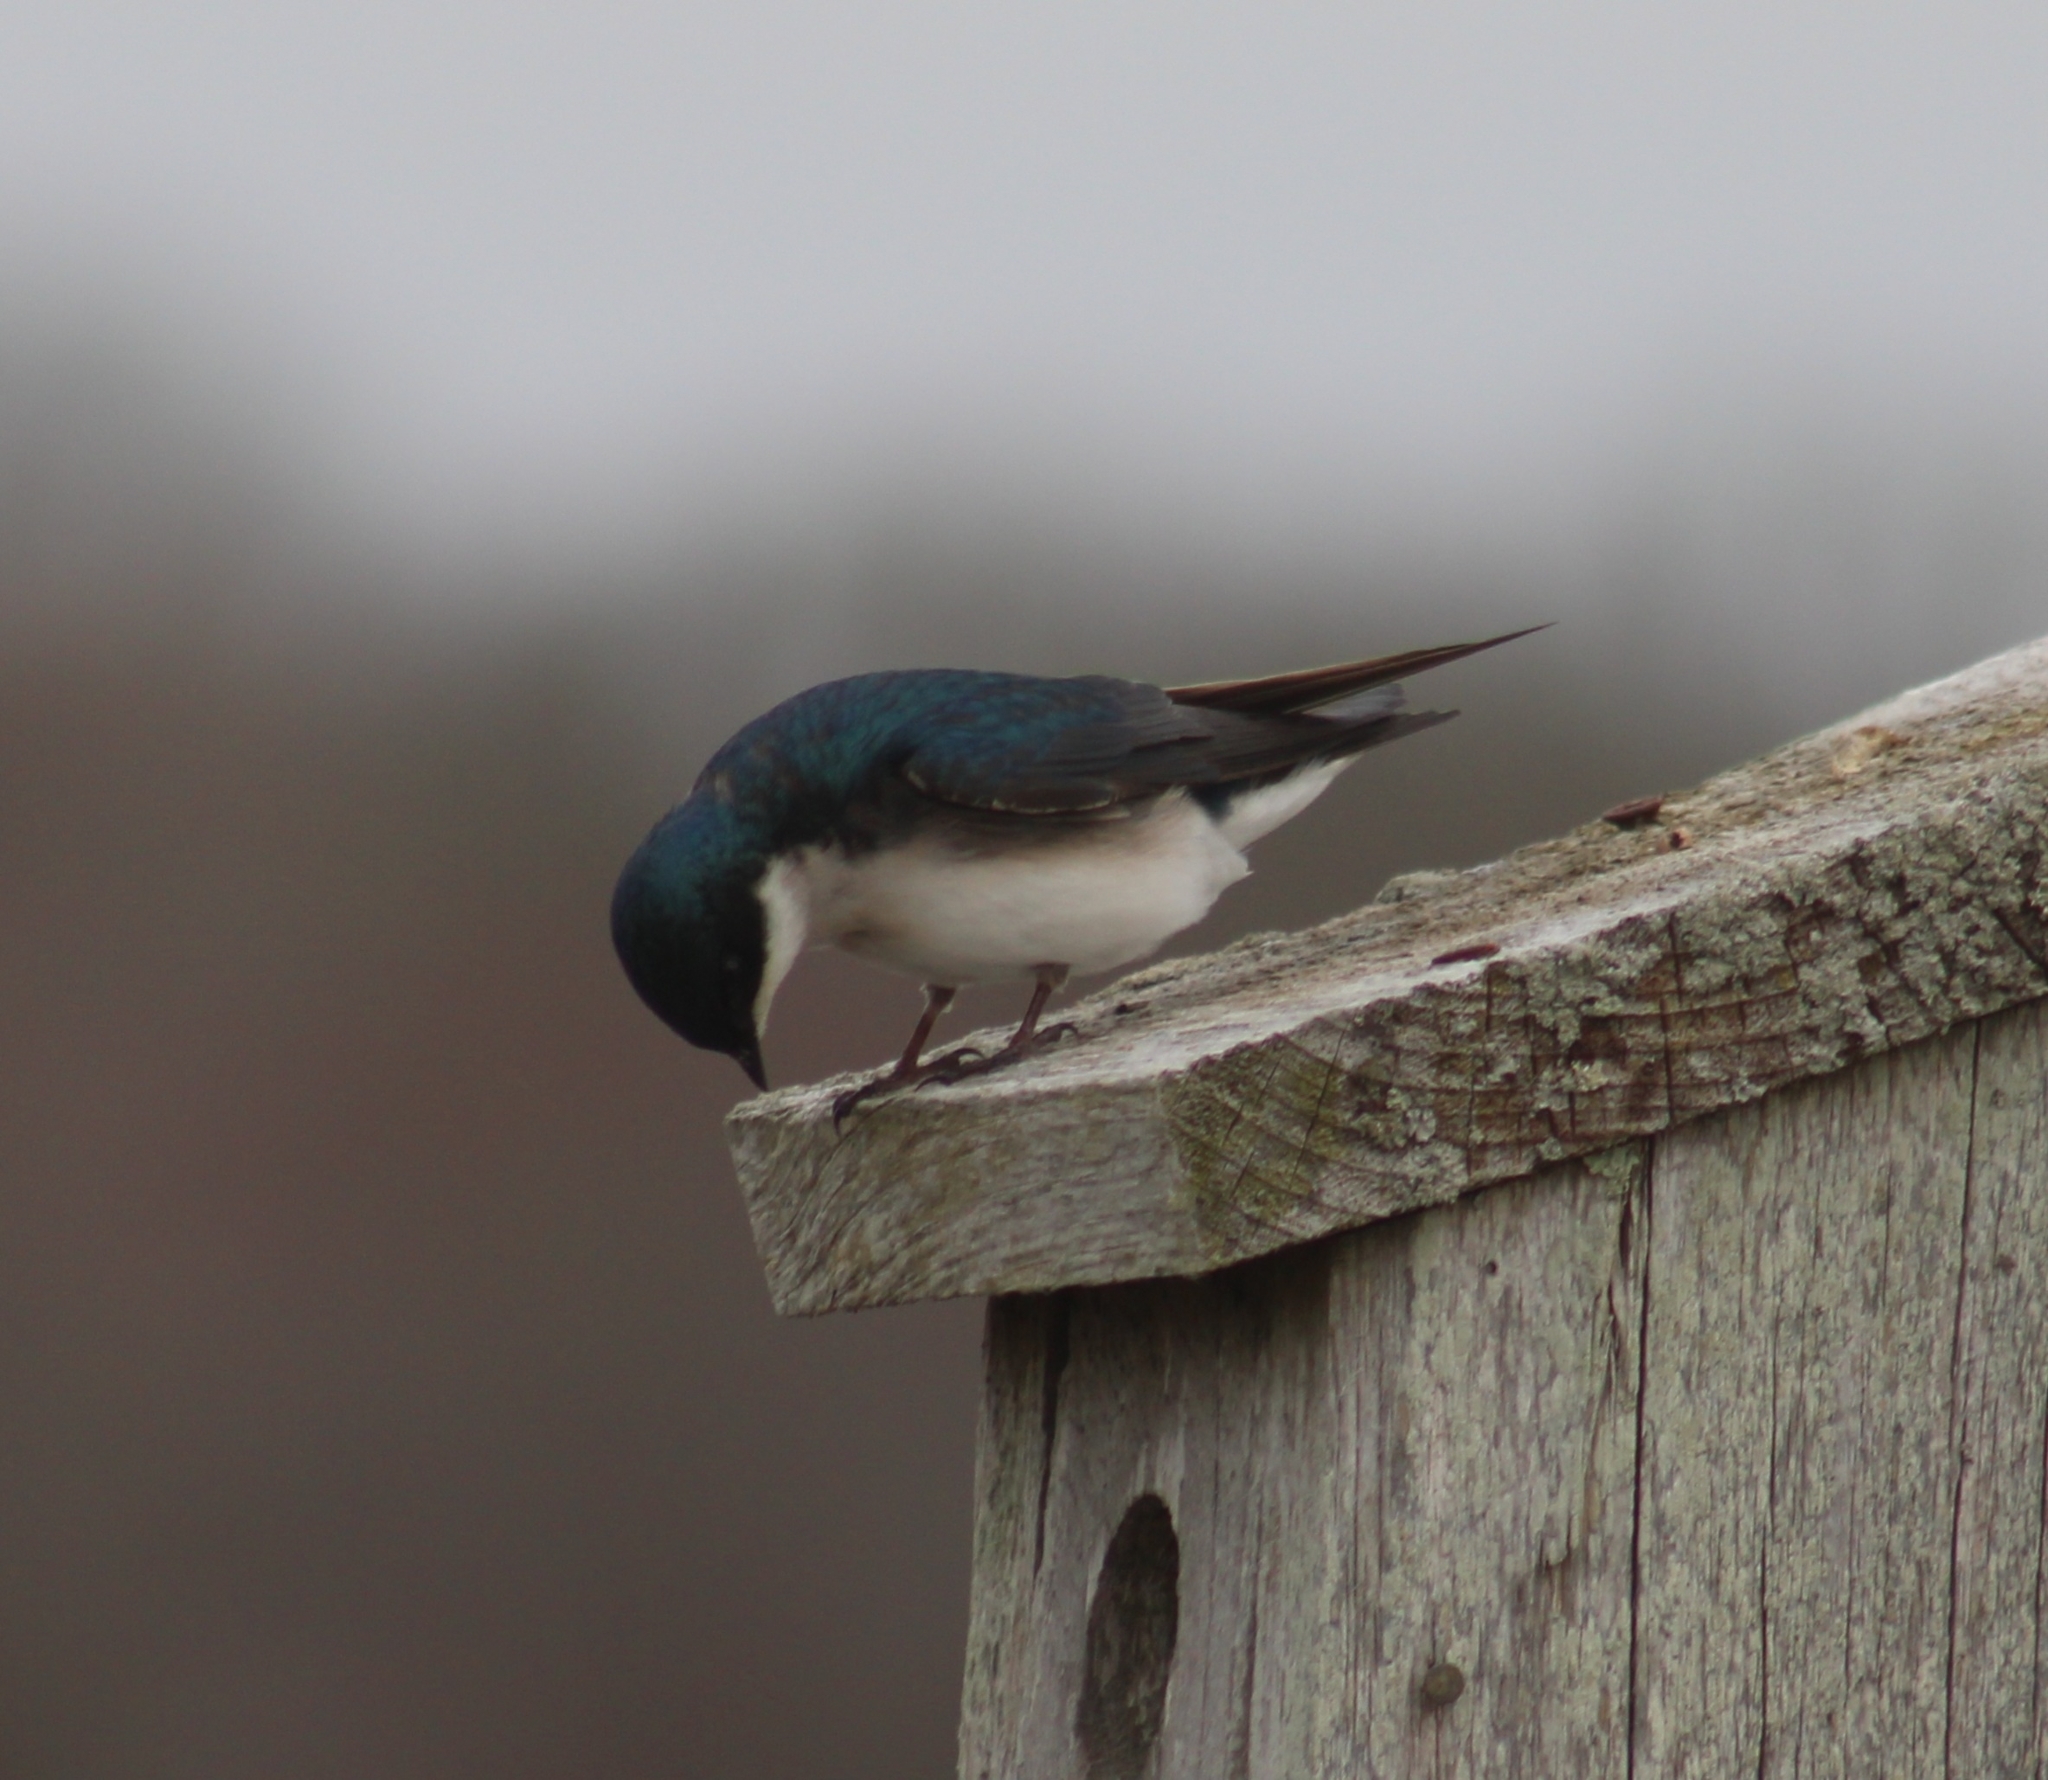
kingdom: Animalia
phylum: Chordata
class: Aves
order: Passeriformes
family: Hirundinidae
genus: Tachycineta
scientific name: Tachycineta bicolor
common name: Tree swallow
